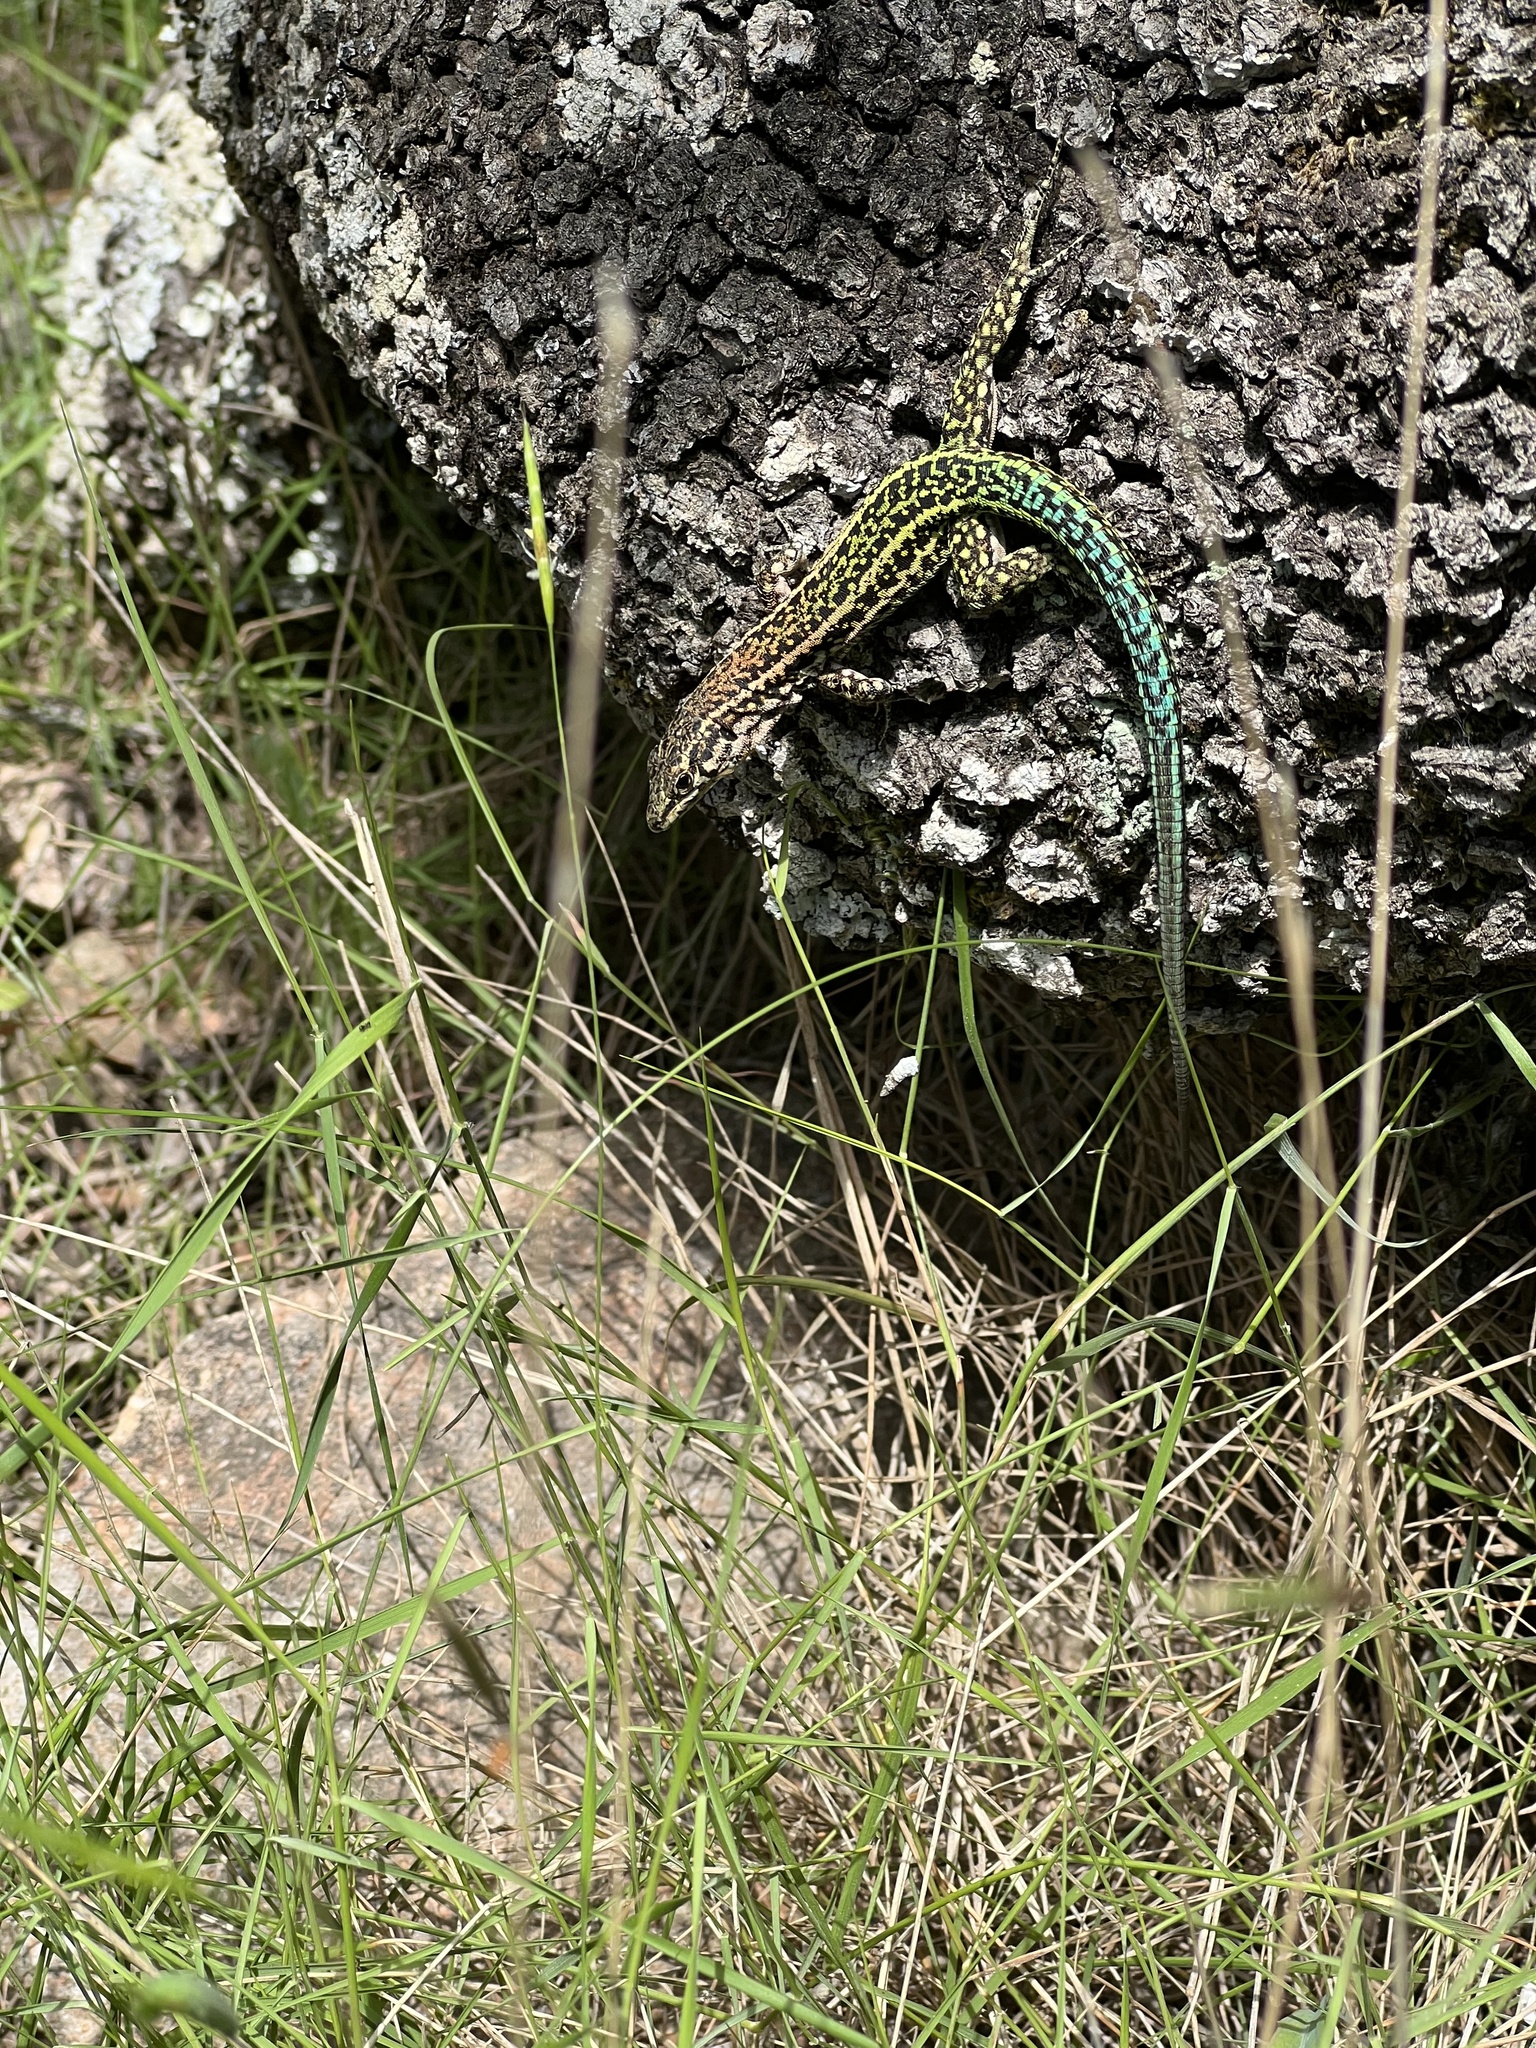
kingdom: Animalia
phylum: Chordata
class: Squamata
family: Lacertidae
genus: Podarcis
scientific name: Podarcis tiliguerta
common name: Tyrrhenian wall lizard
